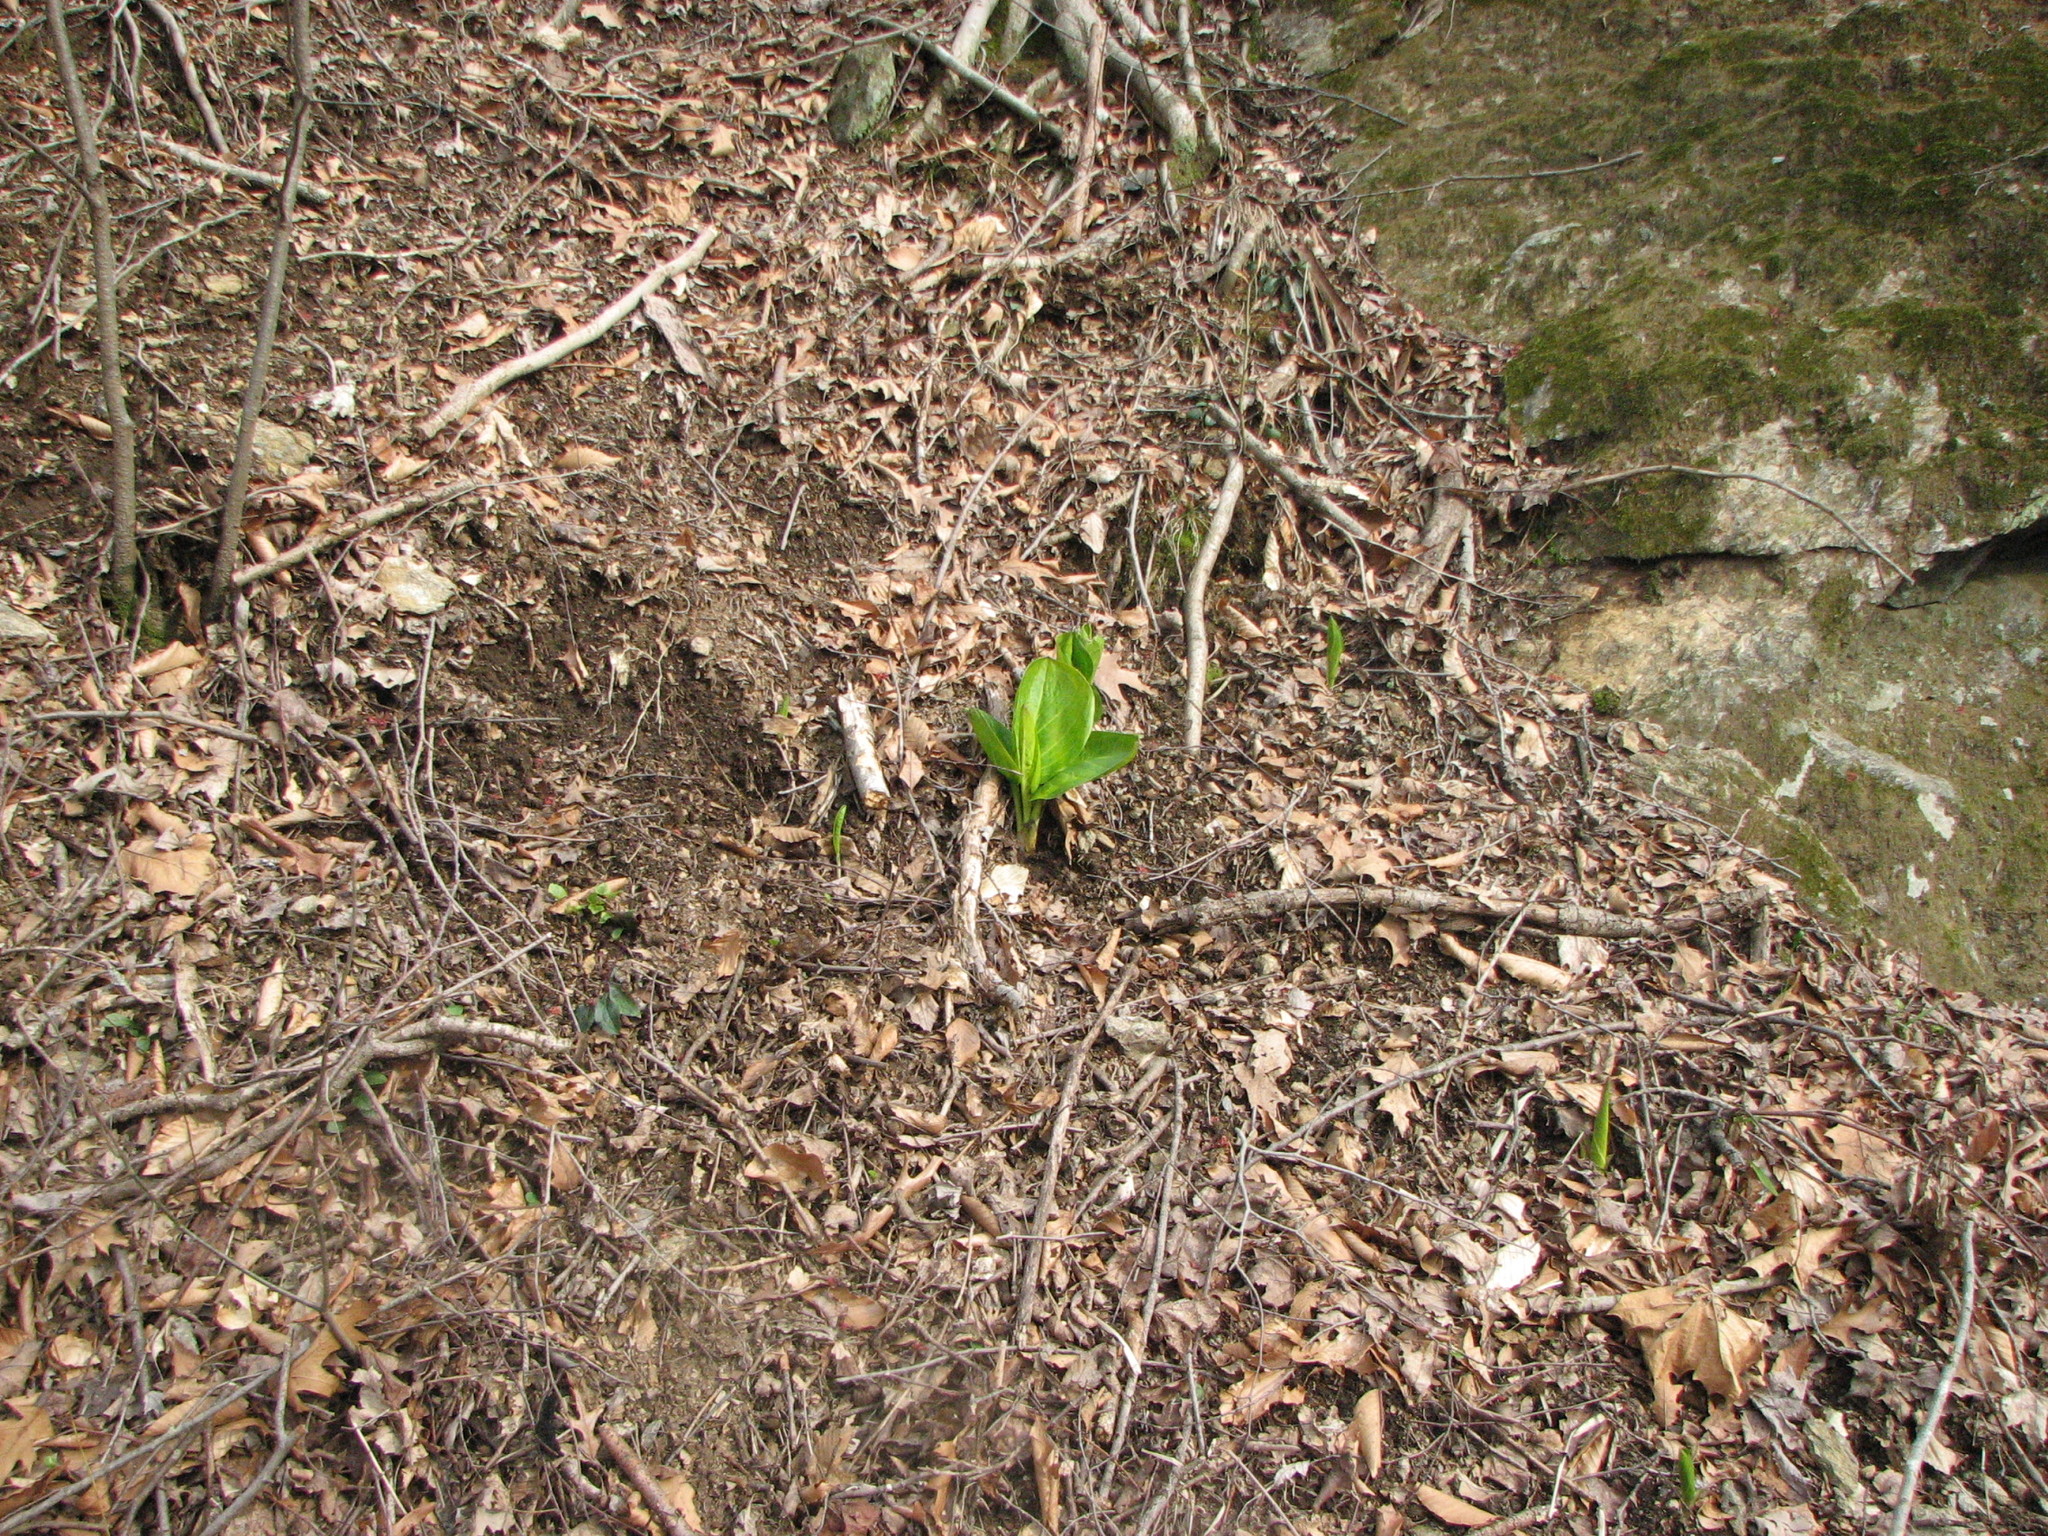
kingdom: Plantae
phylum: Tracheophyta
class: Liliopsida
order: Alismatales
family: Araceae
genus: Symplocarpus
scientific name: Symplocarpus foetidus
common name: Eastern skunk cabbage
